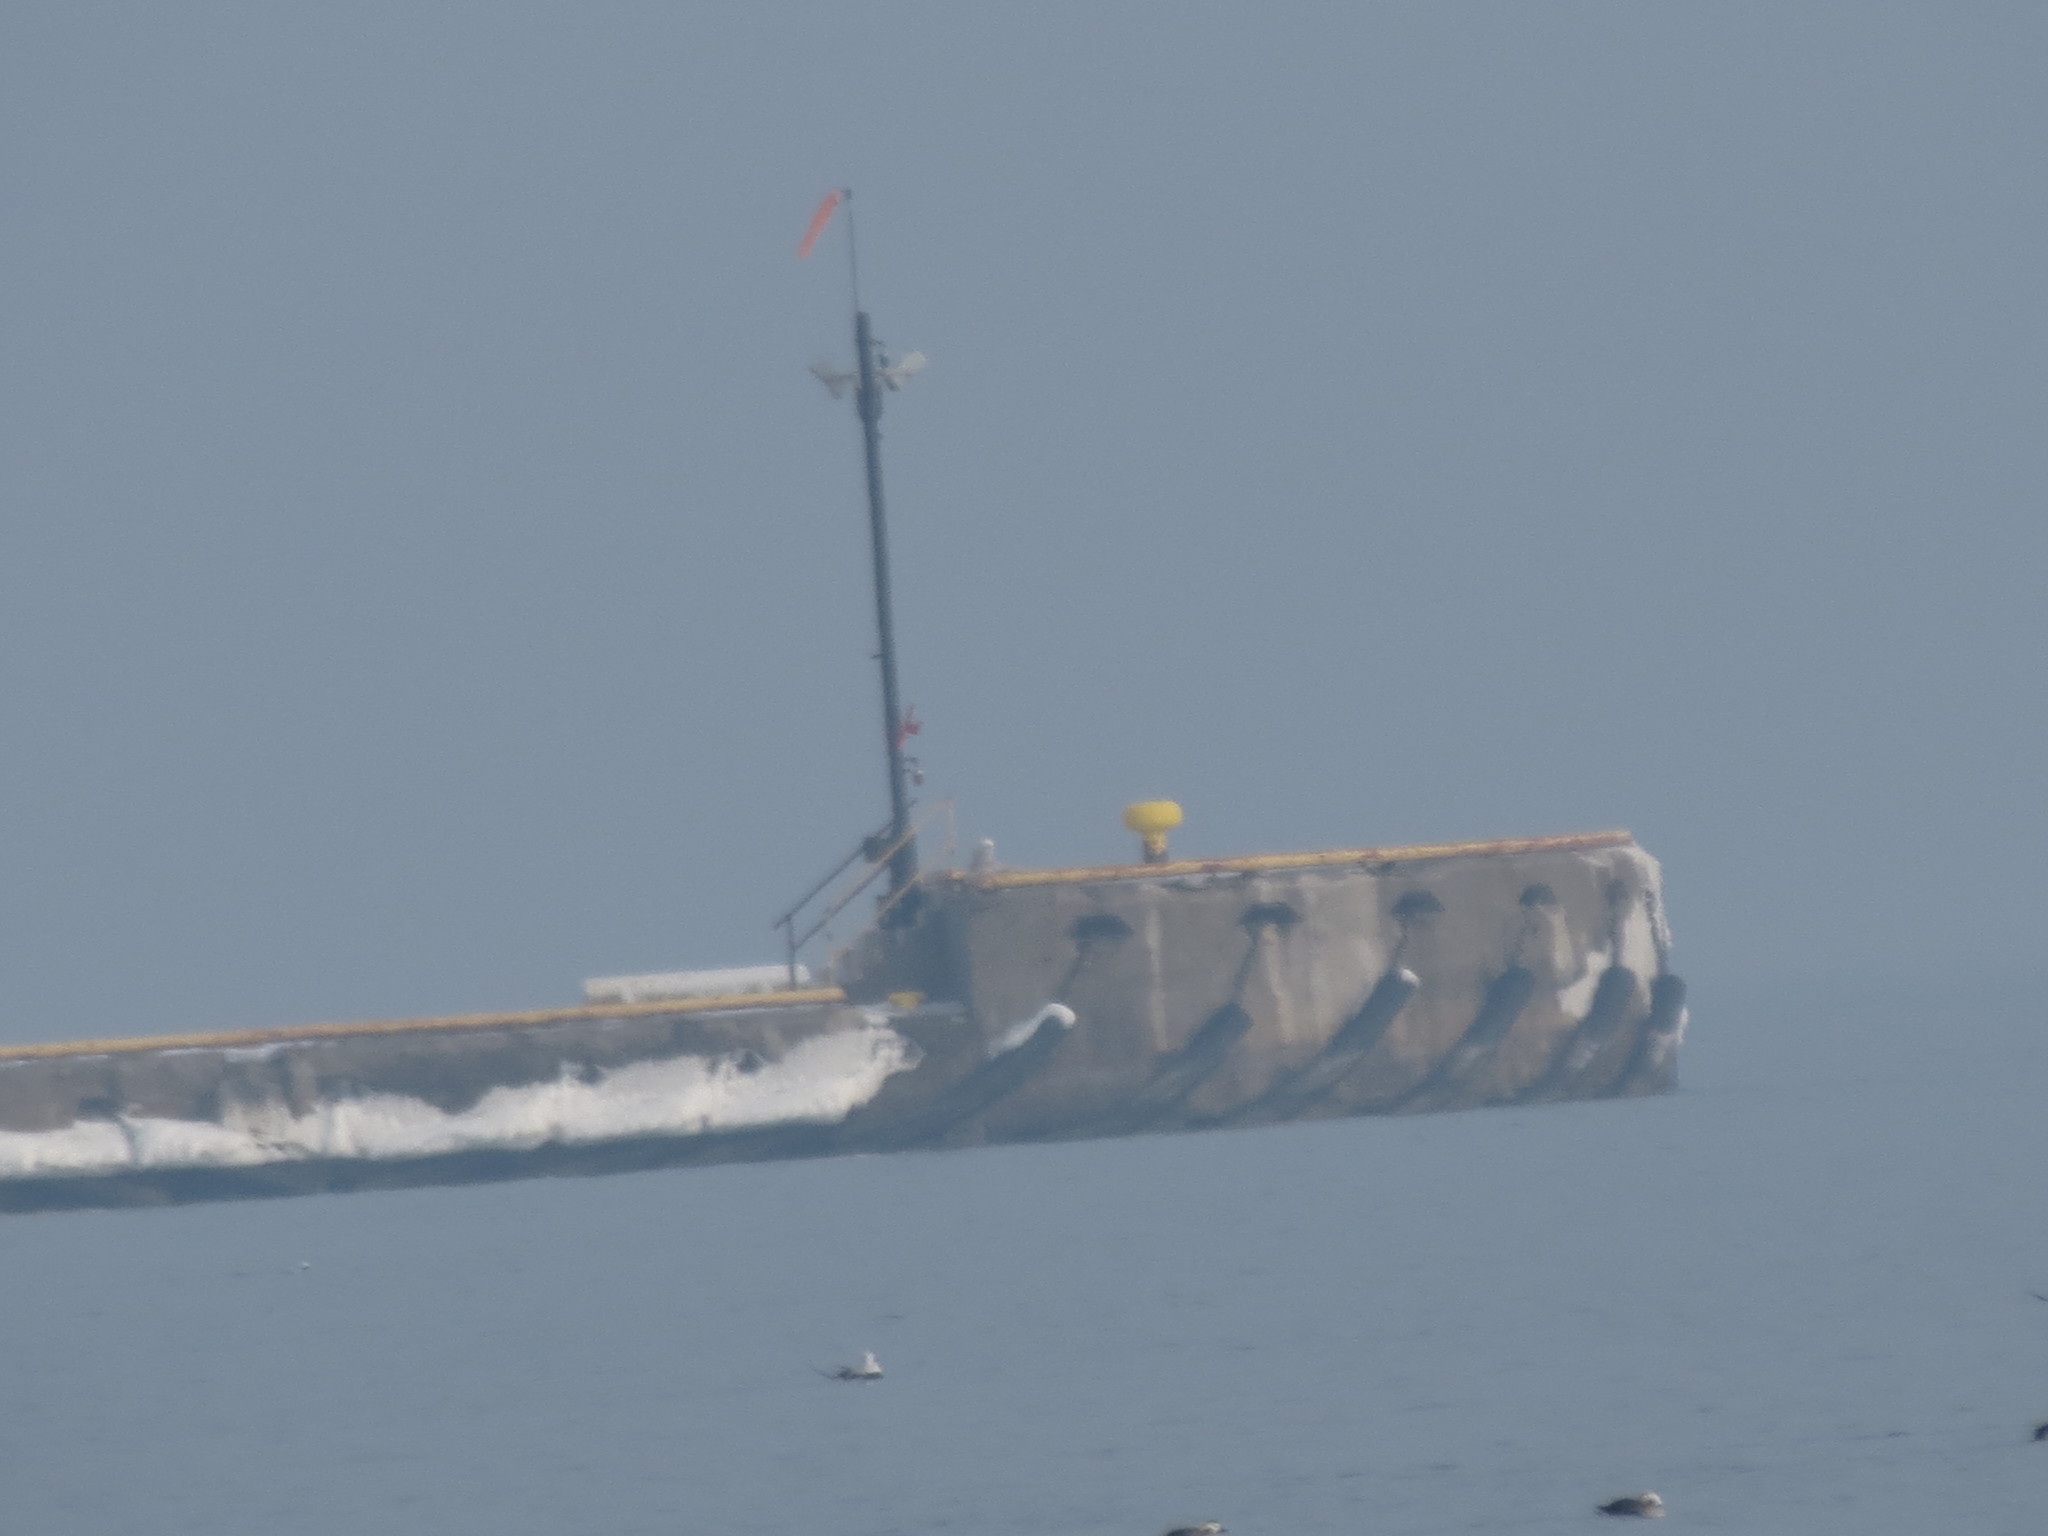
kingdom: Animalia
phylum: Chordata
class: Aves
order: Strigiformes
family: Strigidae
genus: Bubo
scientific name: Bubo scandiacus
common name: Snowy owl
